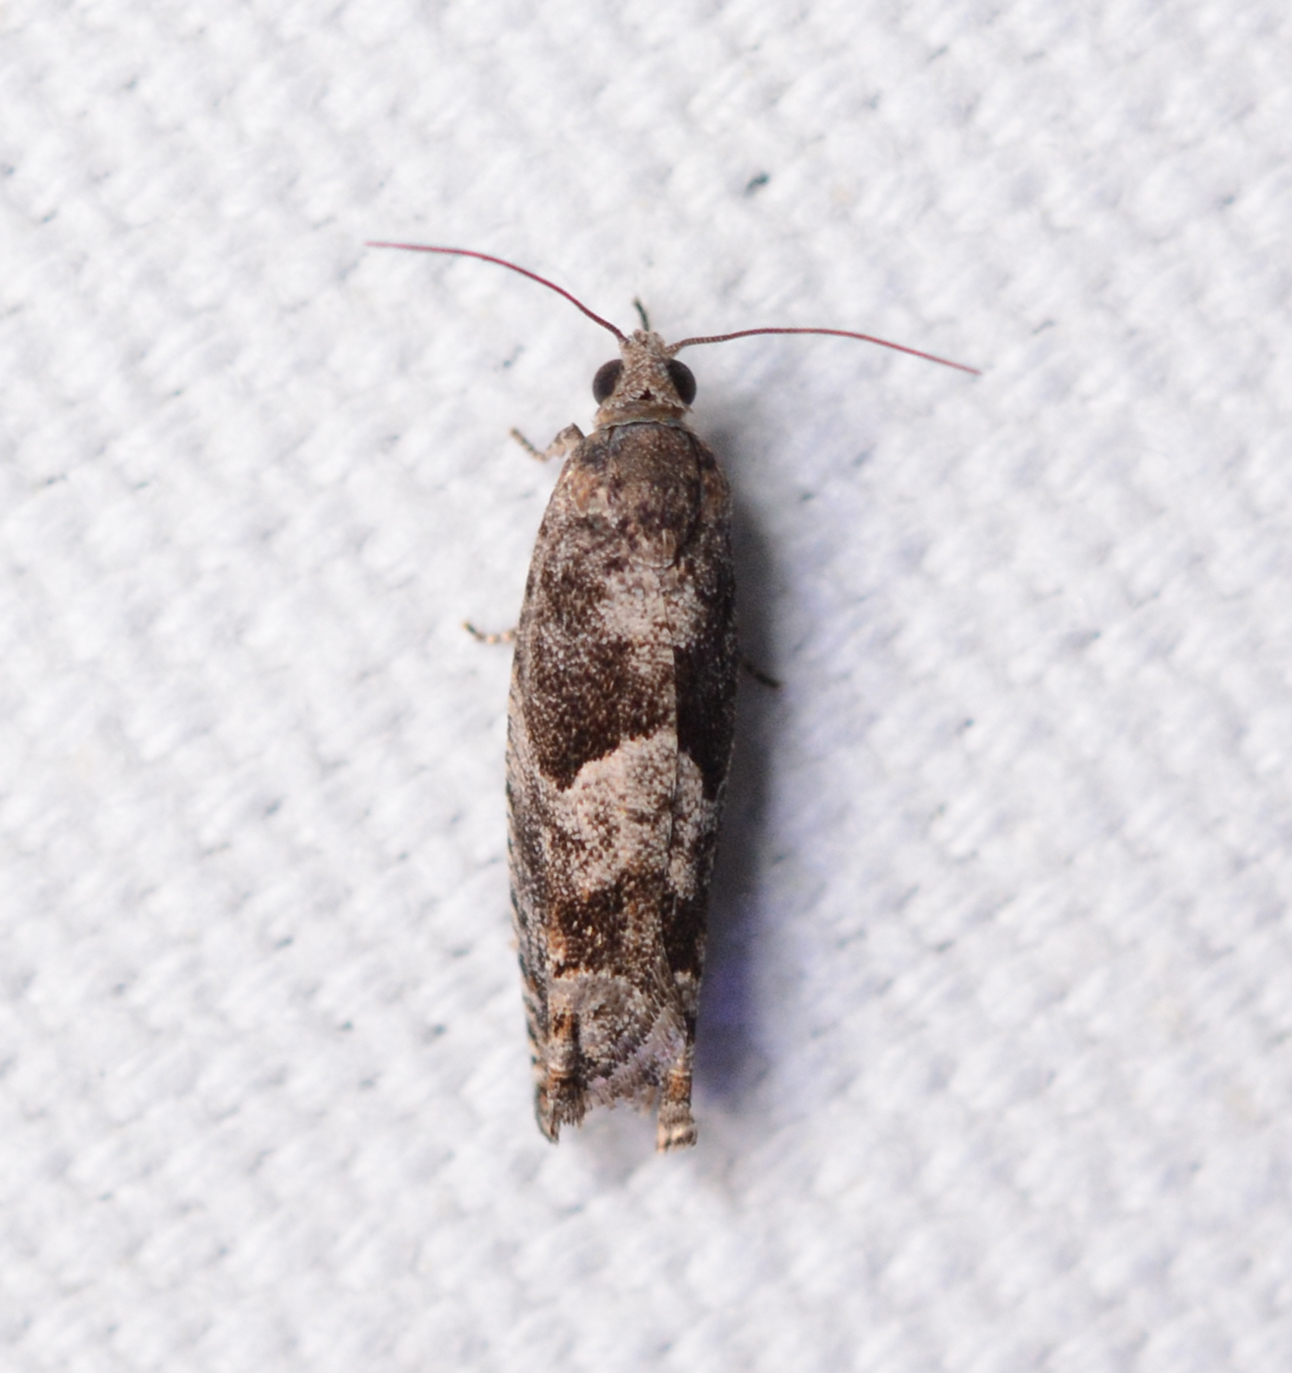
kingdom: Animalia
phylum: Arthropoda
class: Insecta
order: Lepidoptera
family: Tortricidae
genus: Pseudexentera
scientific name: Pseudexentera spoliana
